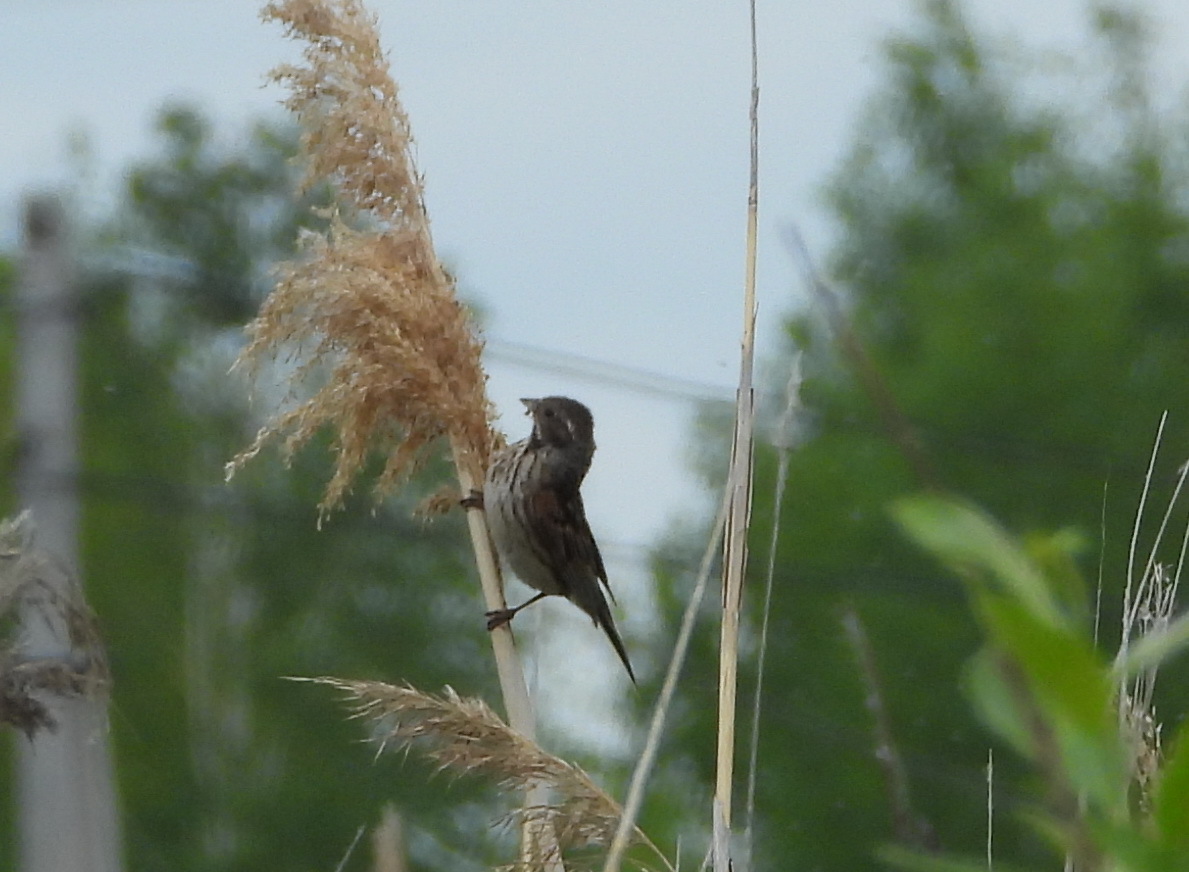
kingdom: Animalia
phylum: Chordata
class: Aves
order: Passeriformes
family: Emberizidae
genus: Emberiza
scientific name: Emberiza schoeniclus
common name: Reed bunting
